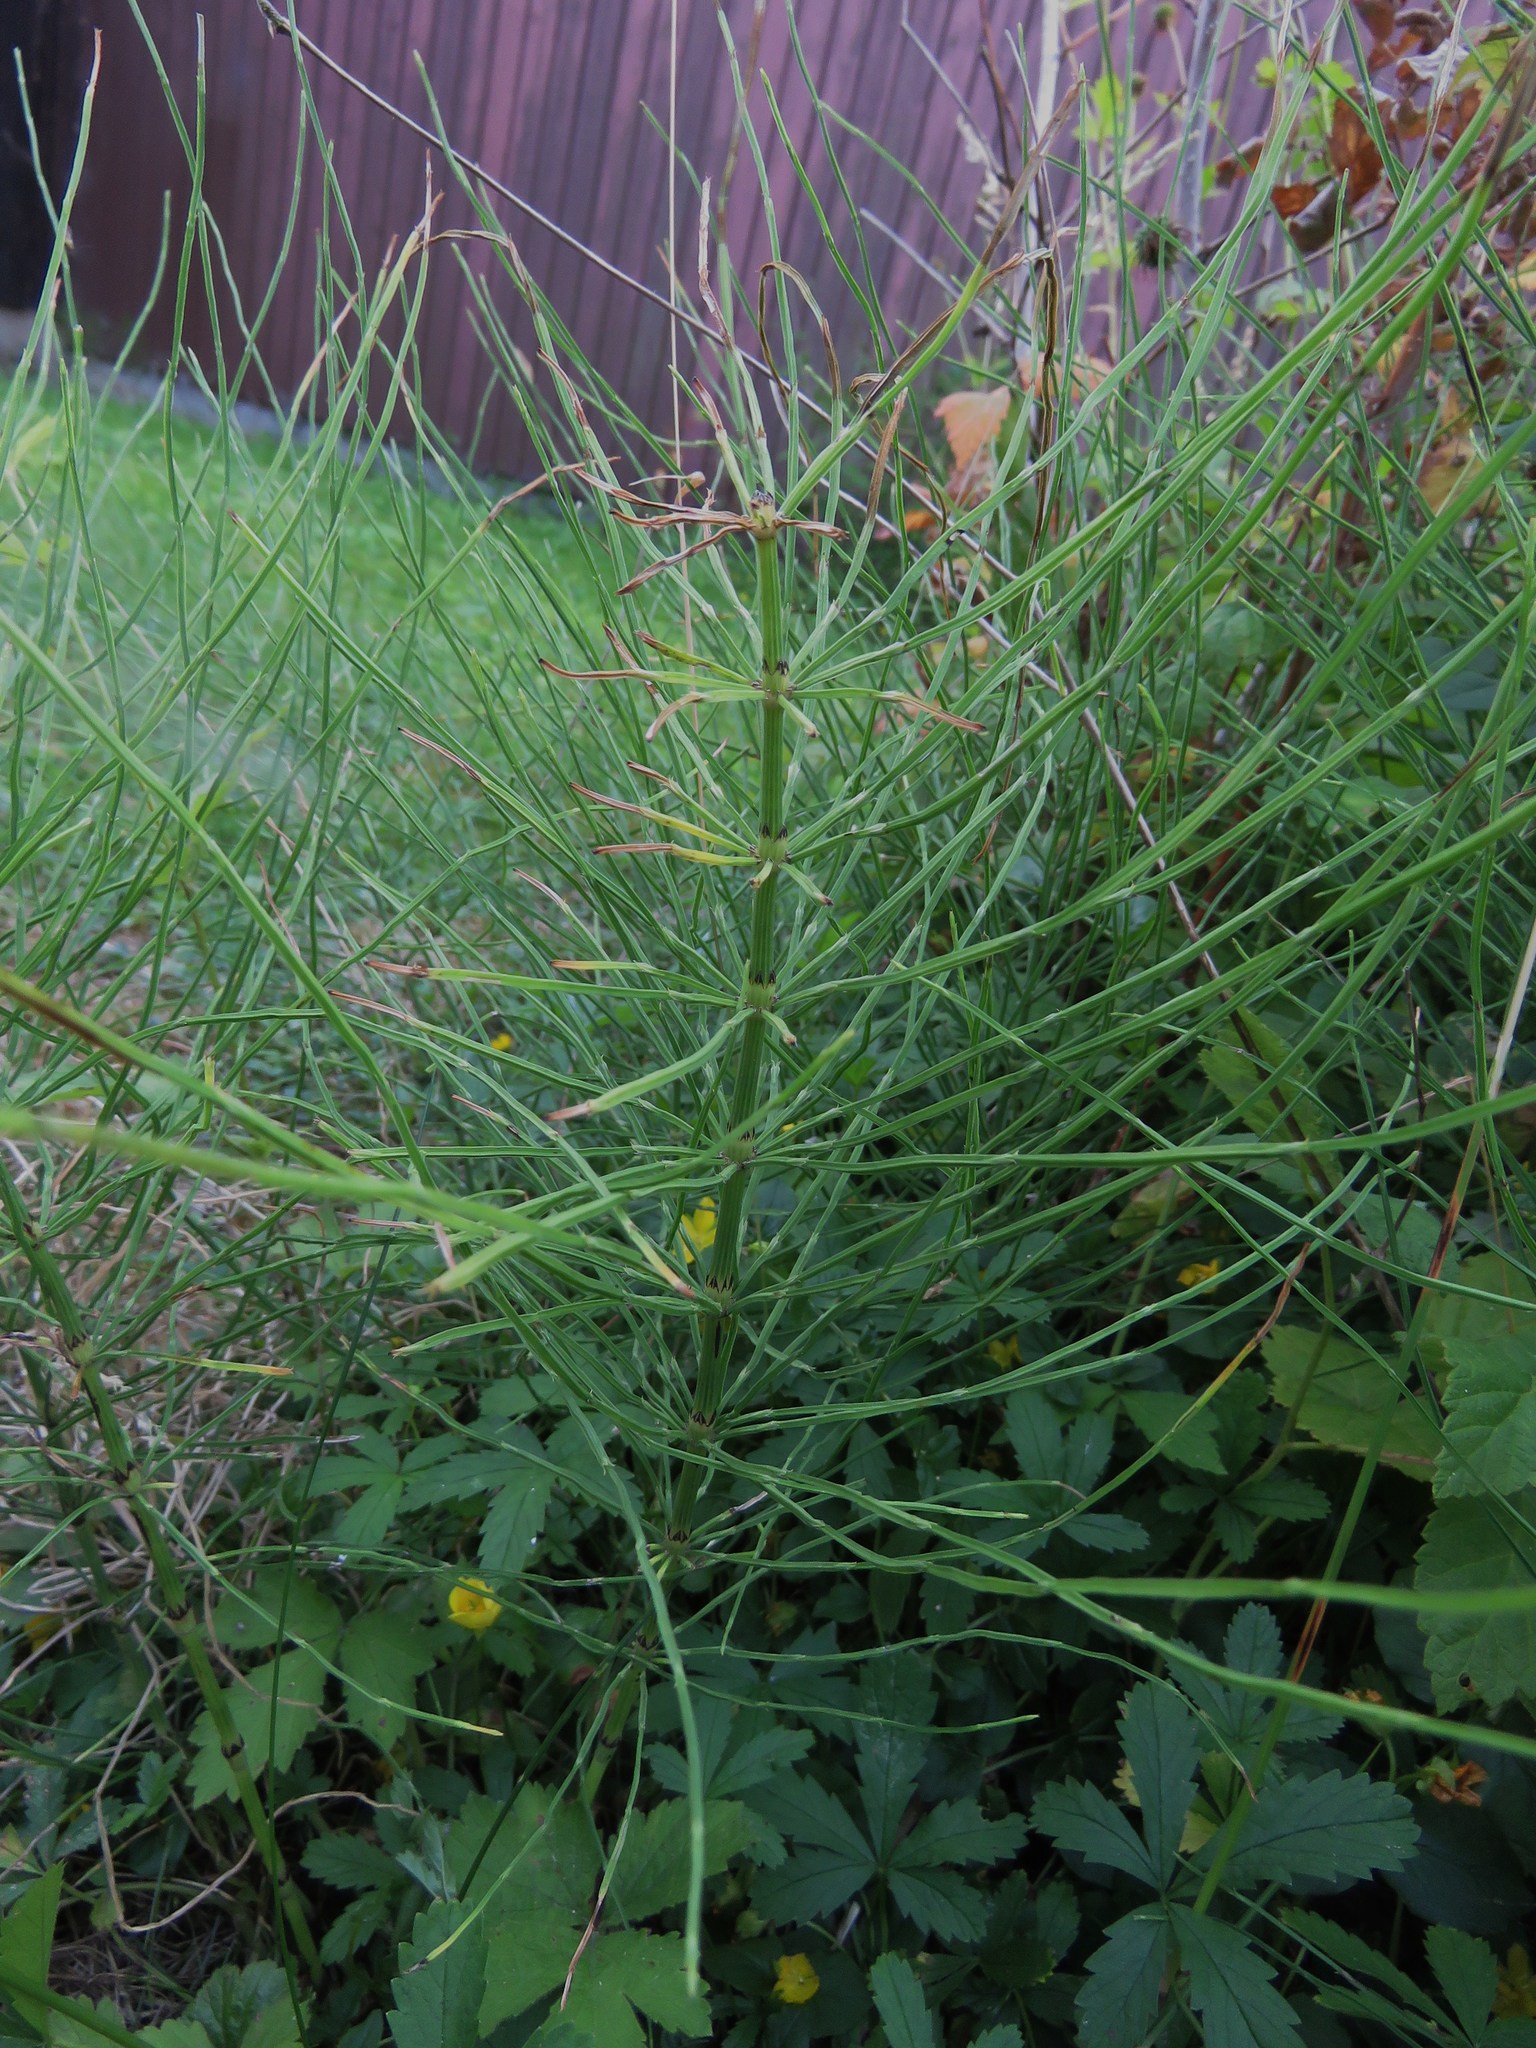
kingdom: Plantae
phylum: Tracheophyta
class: Polypodiopsida
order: Equisetales
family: Equisetaceae
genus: Equisetum
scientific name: Equisetum arvense
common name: Field horsetail
